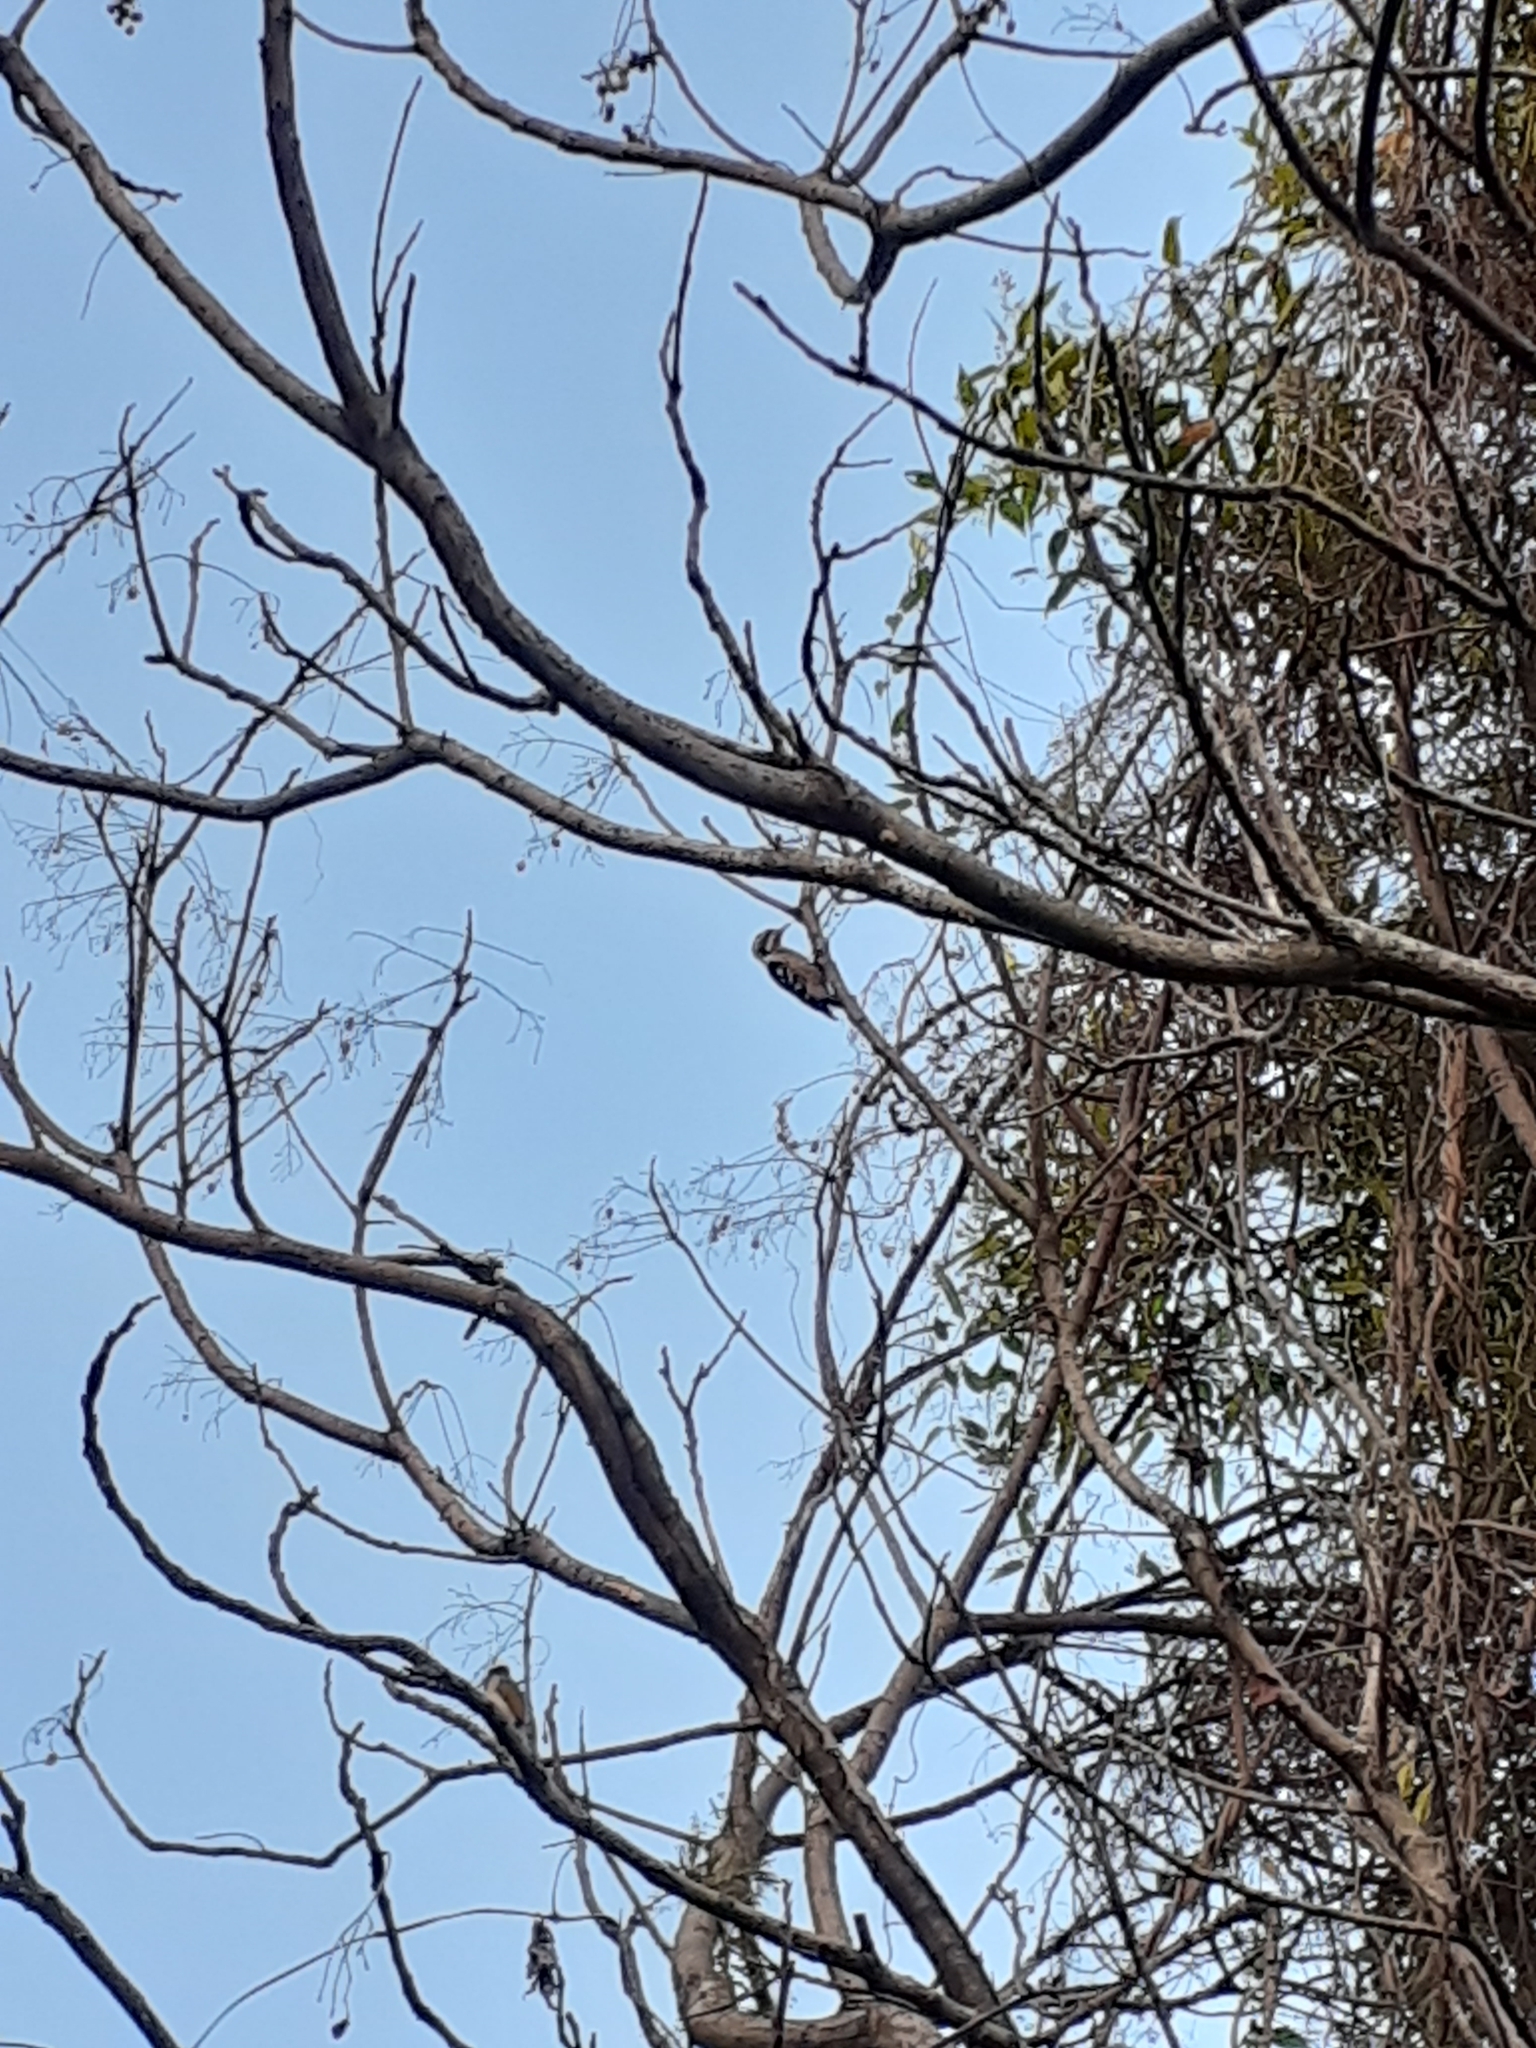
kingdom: Animalia
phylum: Chordata
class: Aves
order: Piciformes
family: Picidae
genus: Yungipicus
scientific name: Yungipicus canicapillus
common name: Grey-capped pygmy woodpecker
